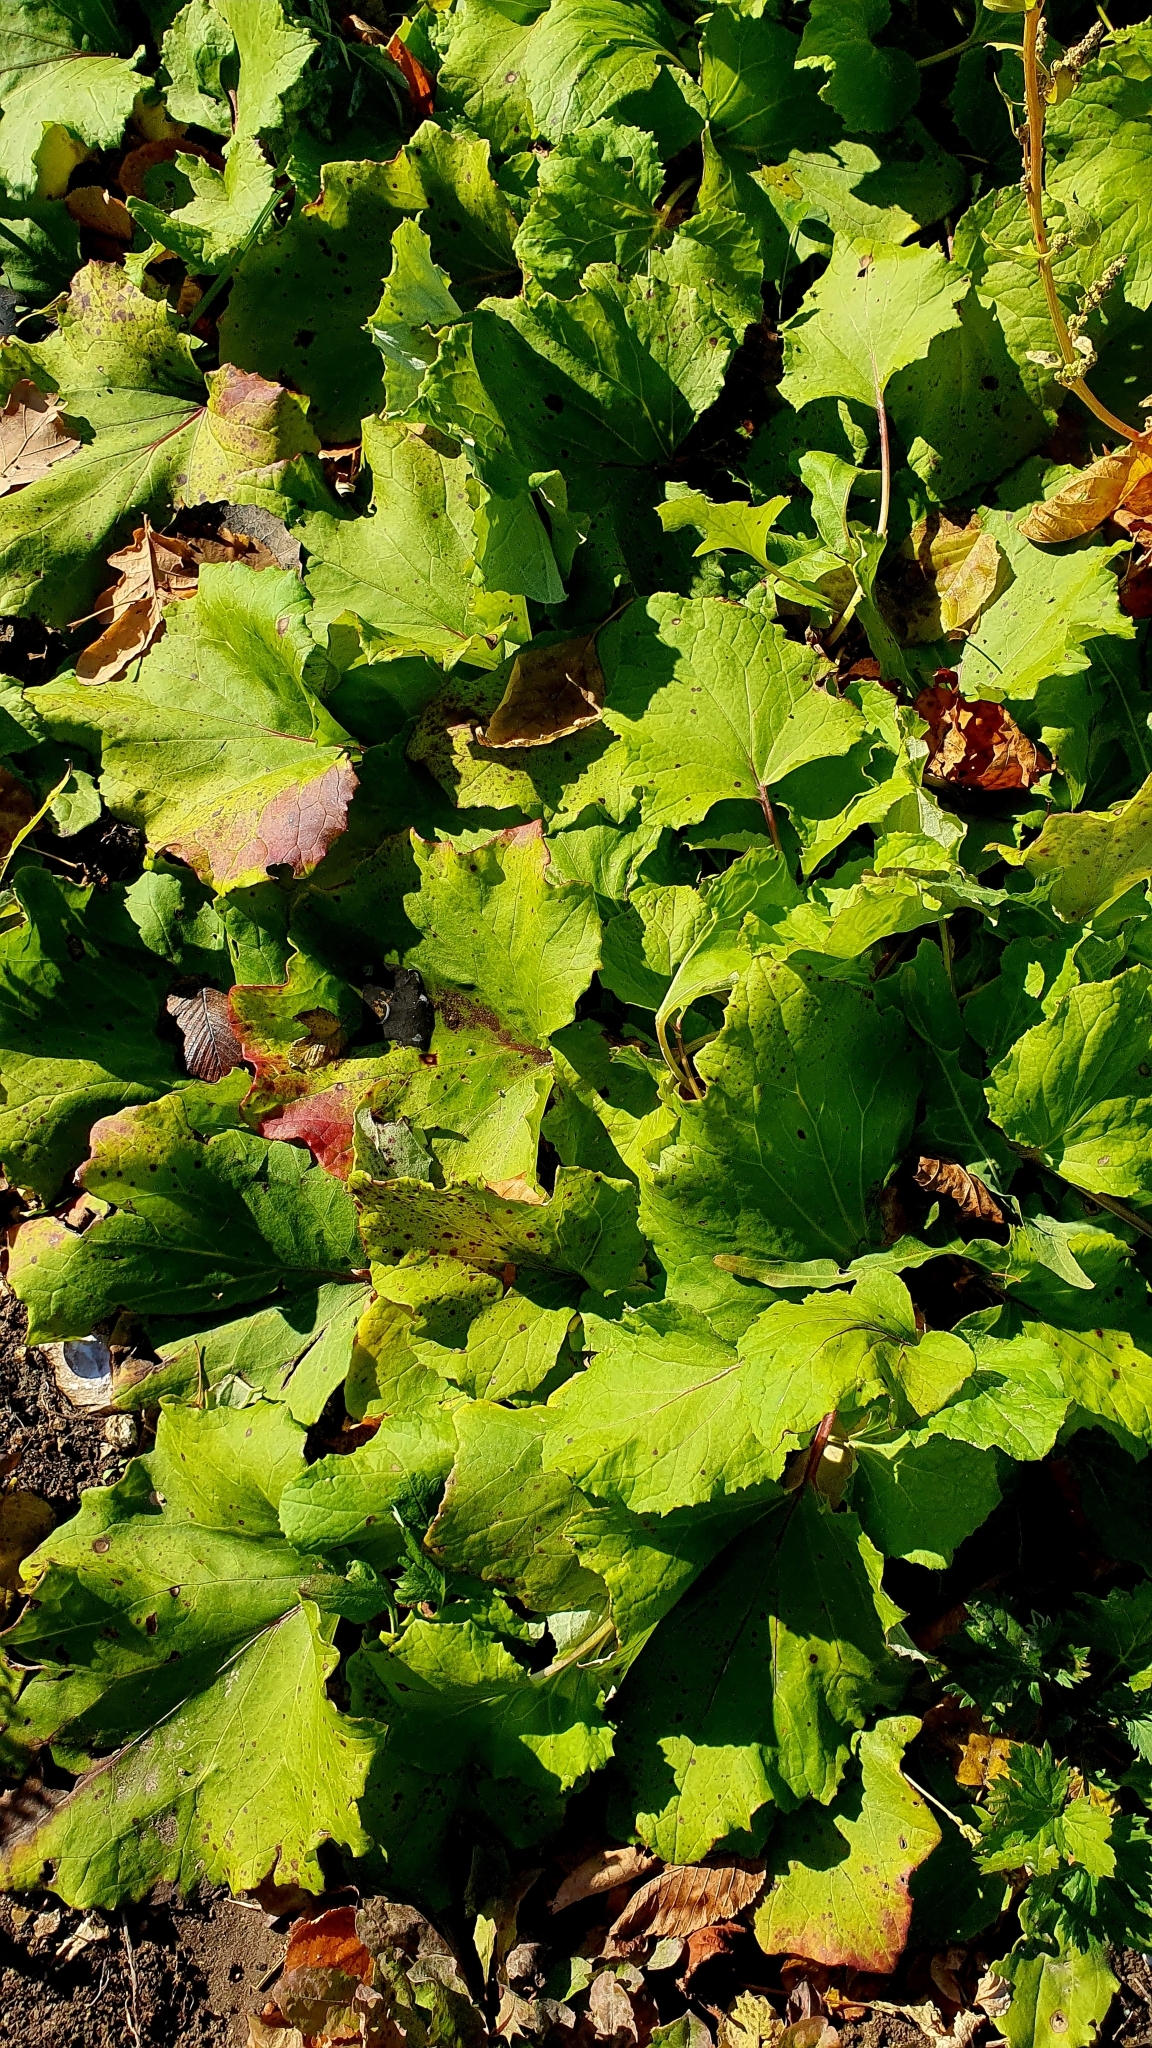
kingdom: Plantae
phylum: Tracheophyta
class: Magnoliopsida
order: Asterales
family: Asteraceae
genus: Tussilago
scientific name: Tussilago farfara
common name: Coltsfoot
